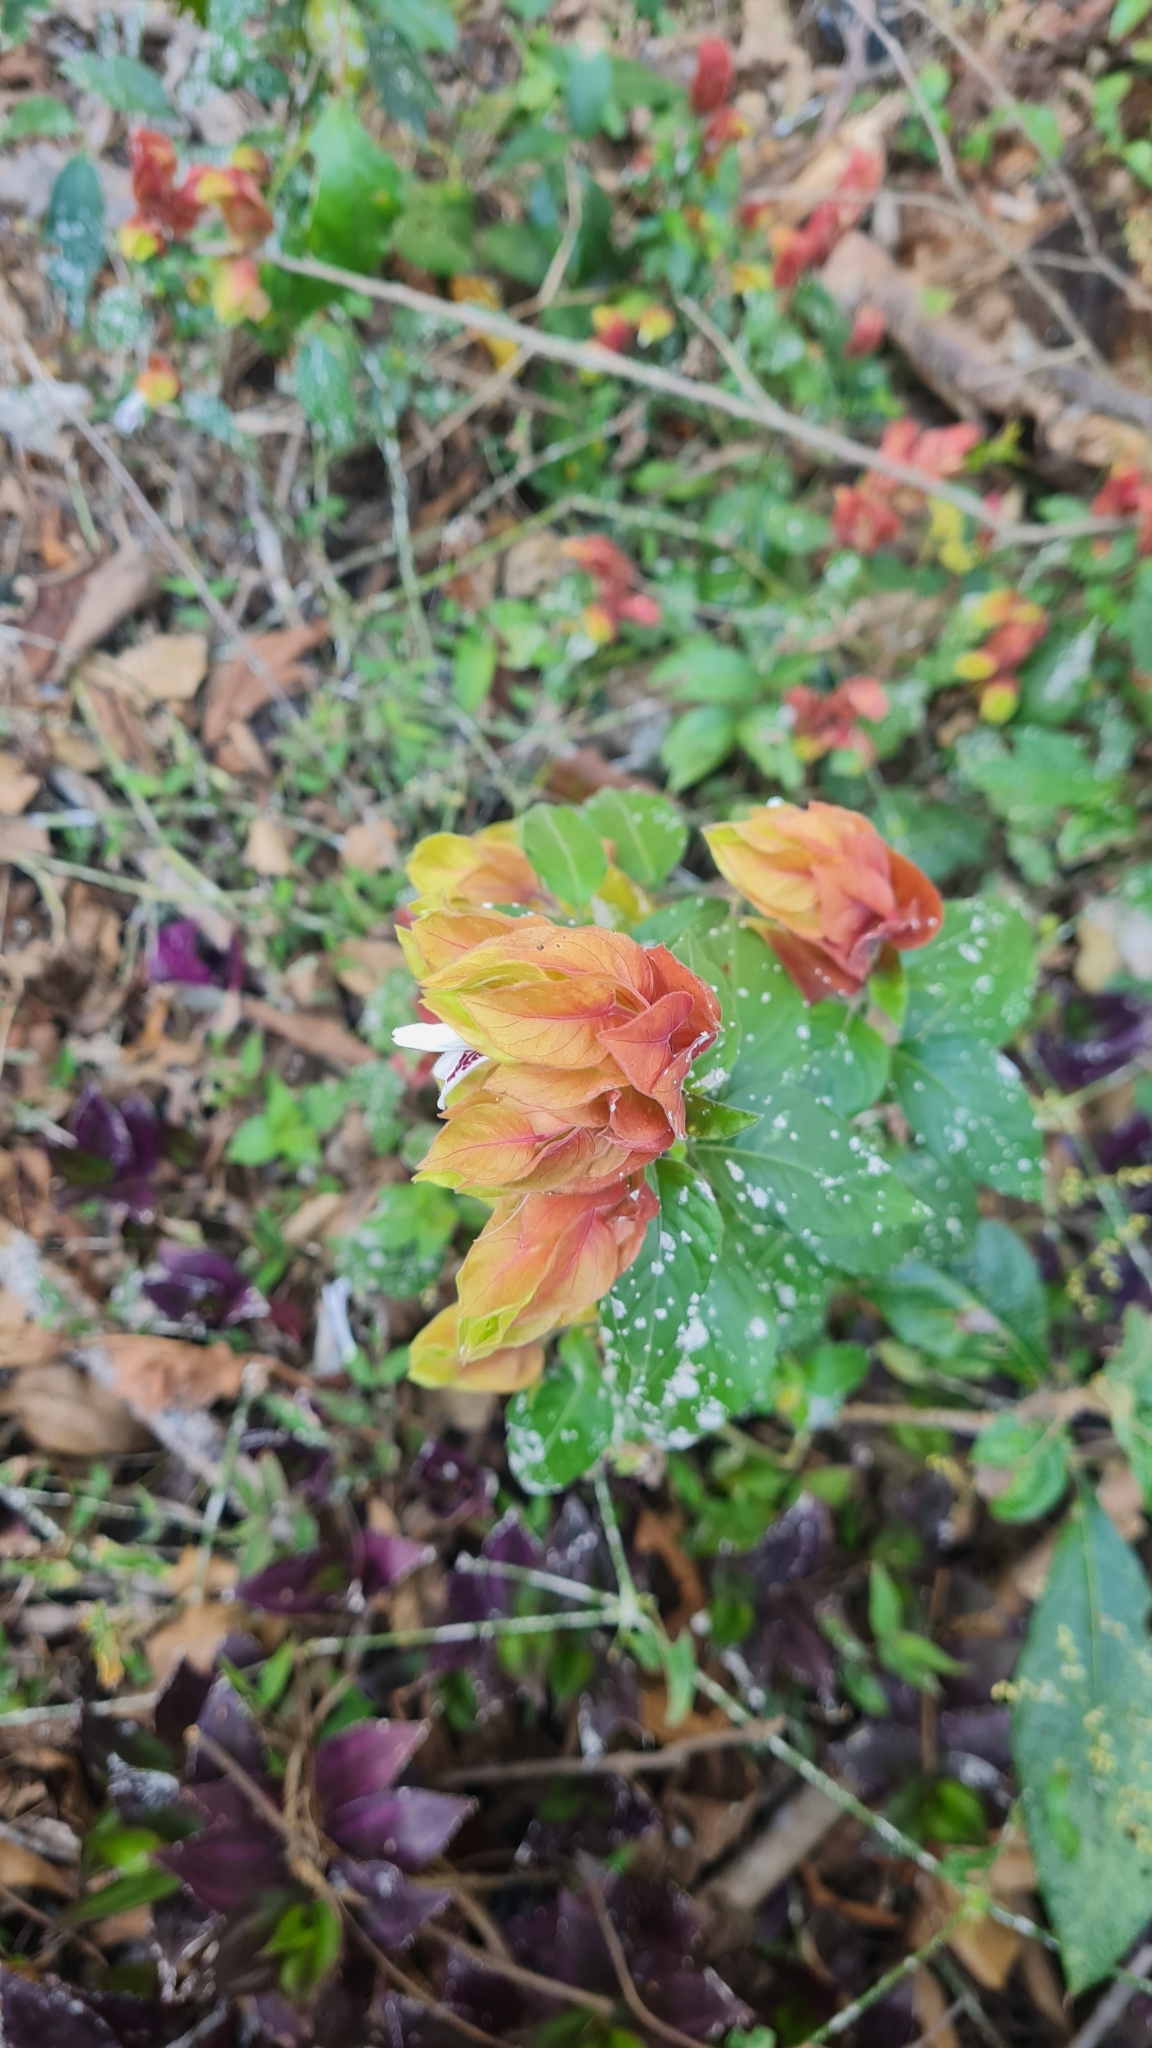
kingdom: Plantae
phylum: Tracheophyta
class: Magnoliopsida
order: Lamiales
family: Acanthaceae
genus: Justicia
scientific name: Justicia brandegeeana
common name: Shrimpplant
